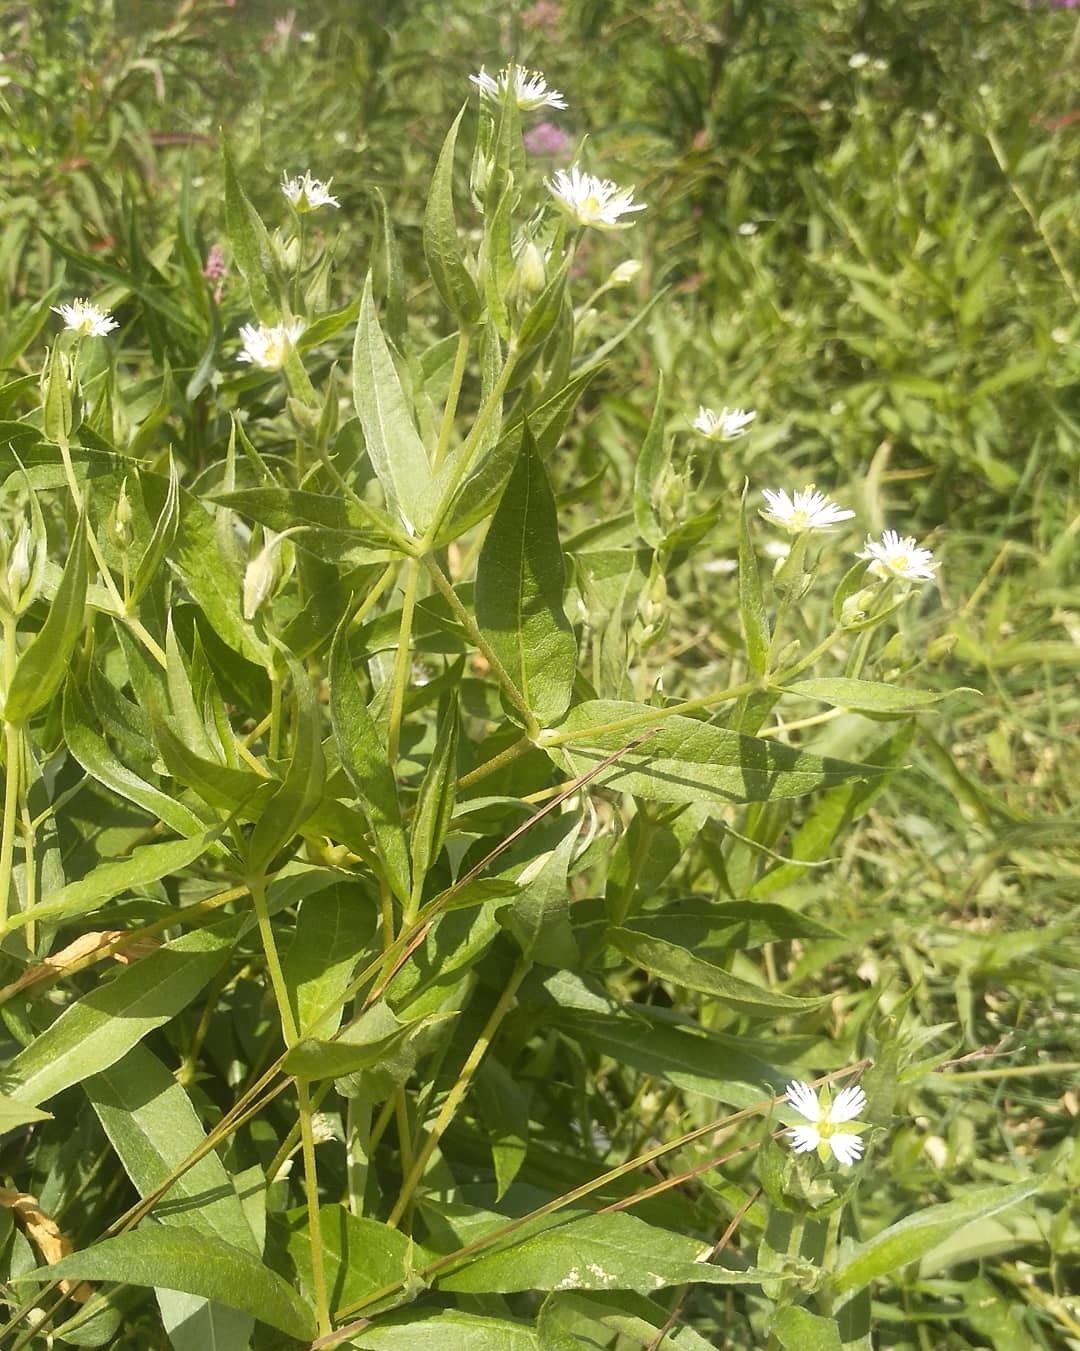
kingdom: Plantae
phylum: Tracheophyta
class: Magnoliopsida
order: Caryophyllales
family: Caryophyllaceae
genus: Stellaria
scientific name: Stellaria radians
